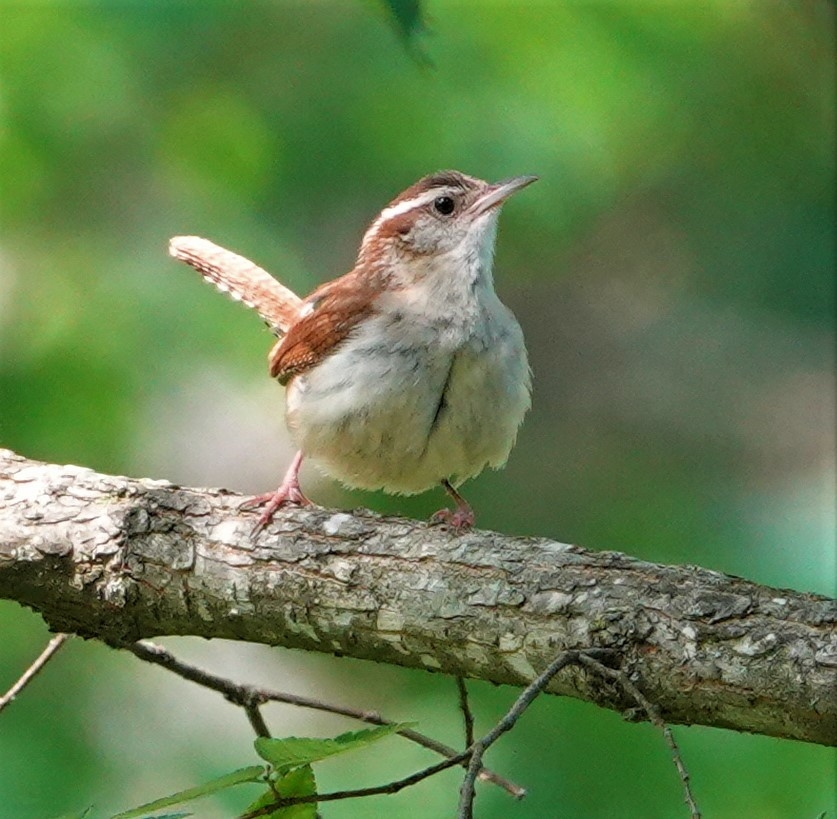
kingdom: Animalia
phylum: Chordata
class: Aves
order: Passeriformes
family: Troglodytidae
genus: Thryothorus
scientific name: Thryothorus ludovicianus
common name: Carolina wren
